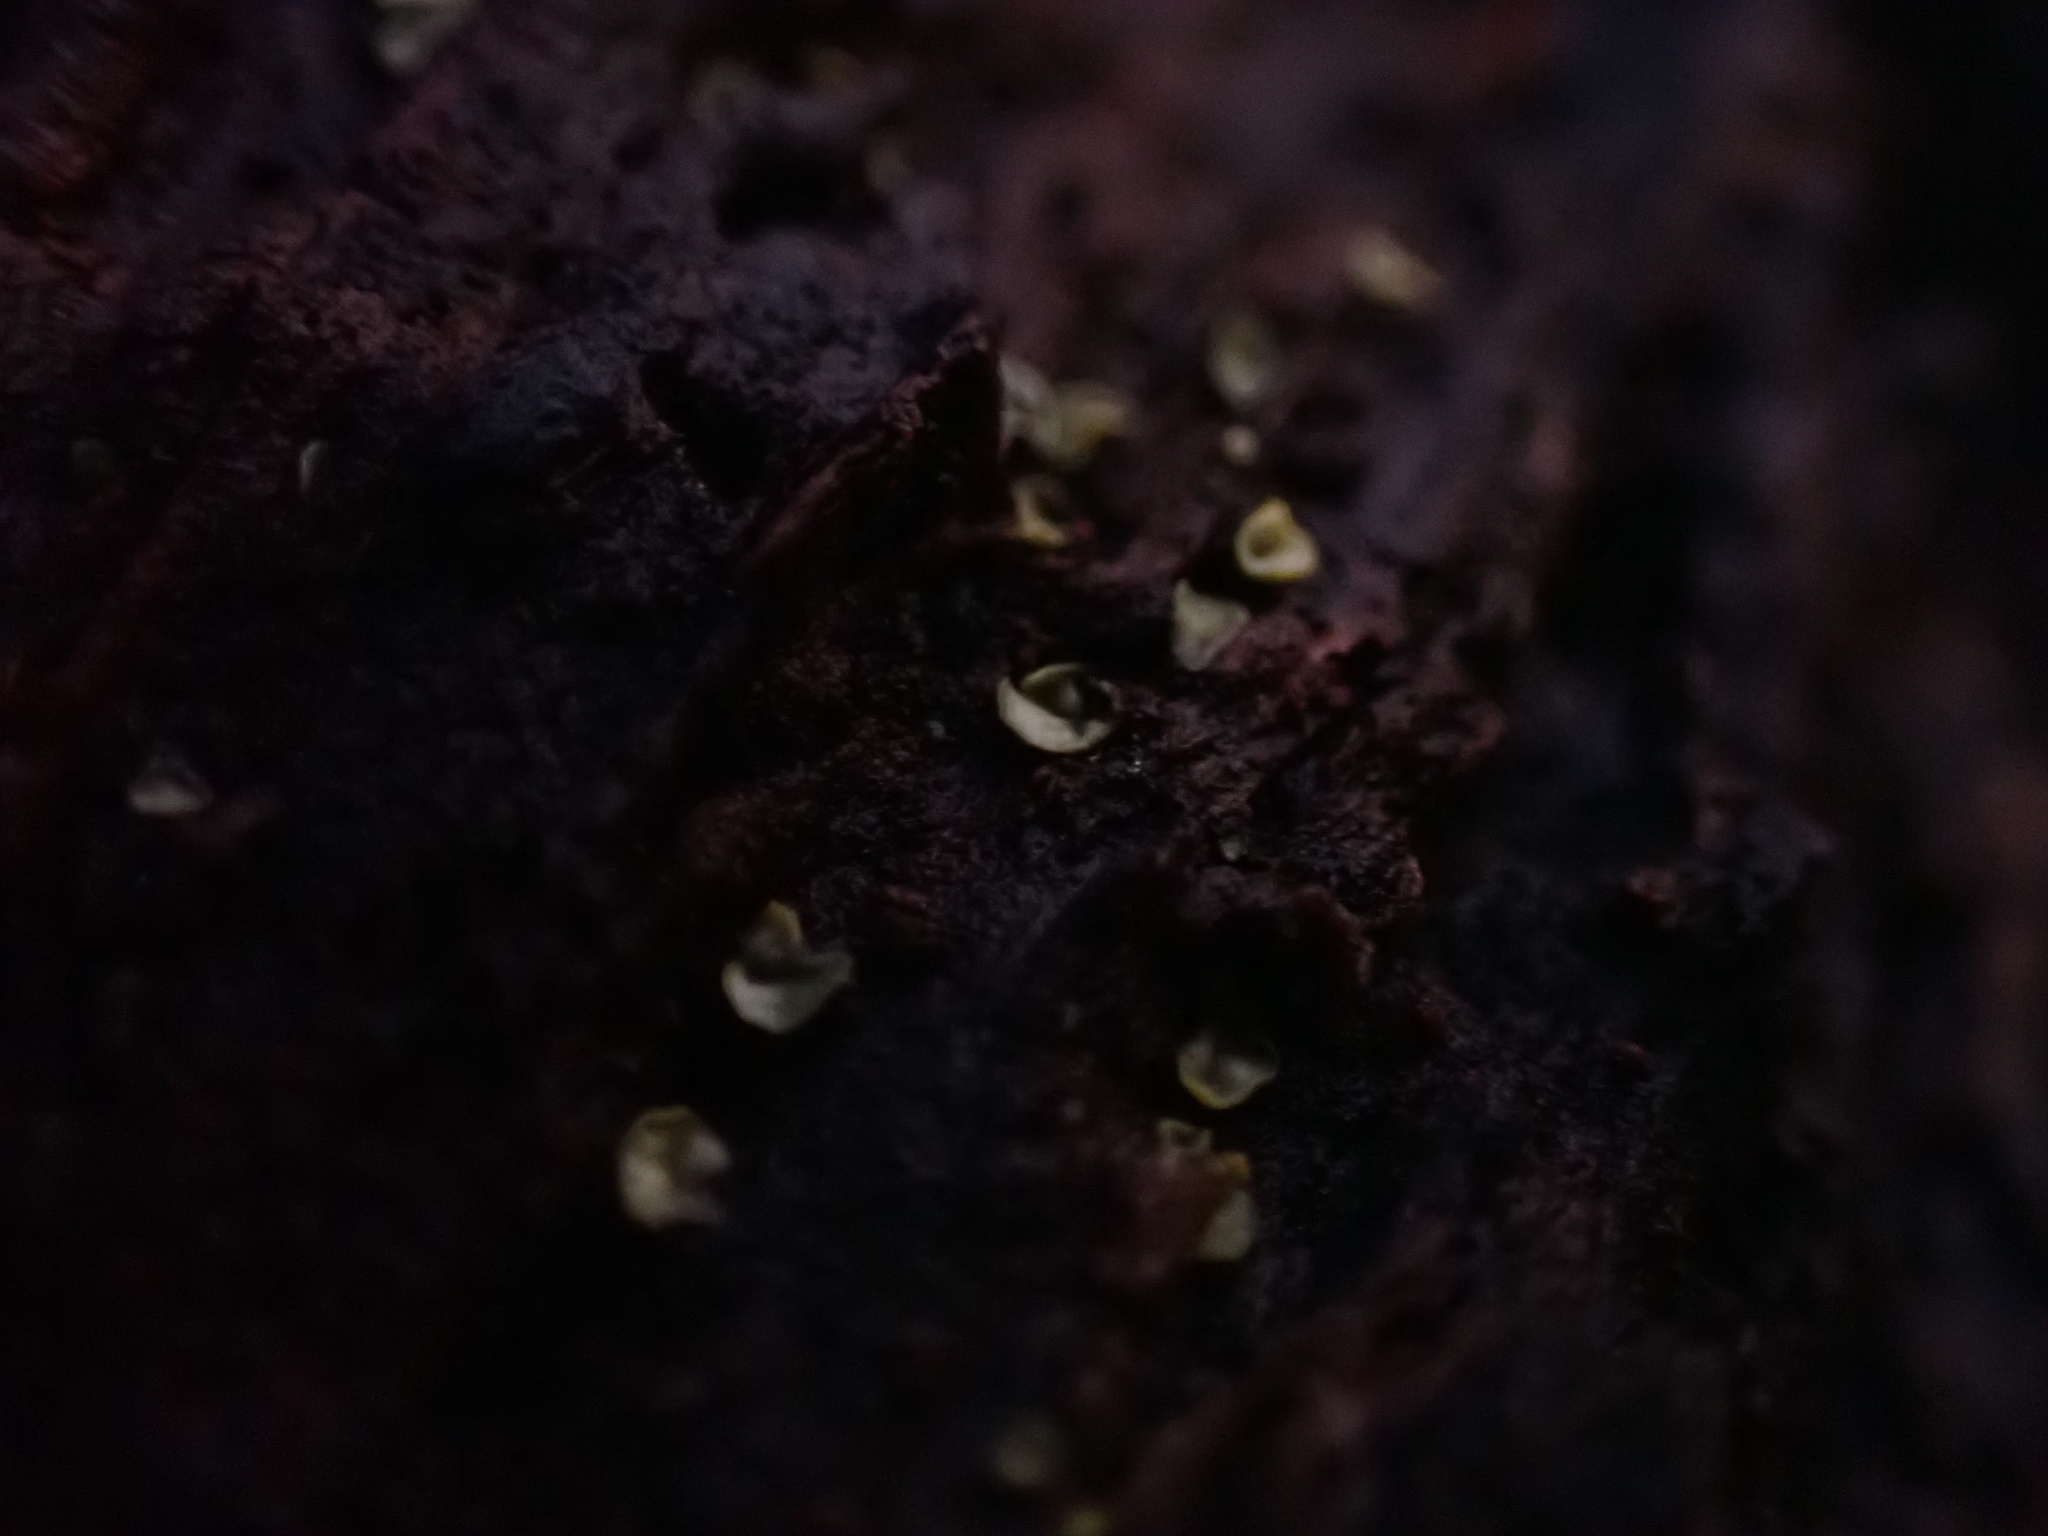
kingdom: Fungi
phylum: Ascomycota
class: Leotiomycetes
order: Helotiales
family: Chlorospleniaceae
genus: Chlorosplenium
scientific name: Chlorosplenium chlora
